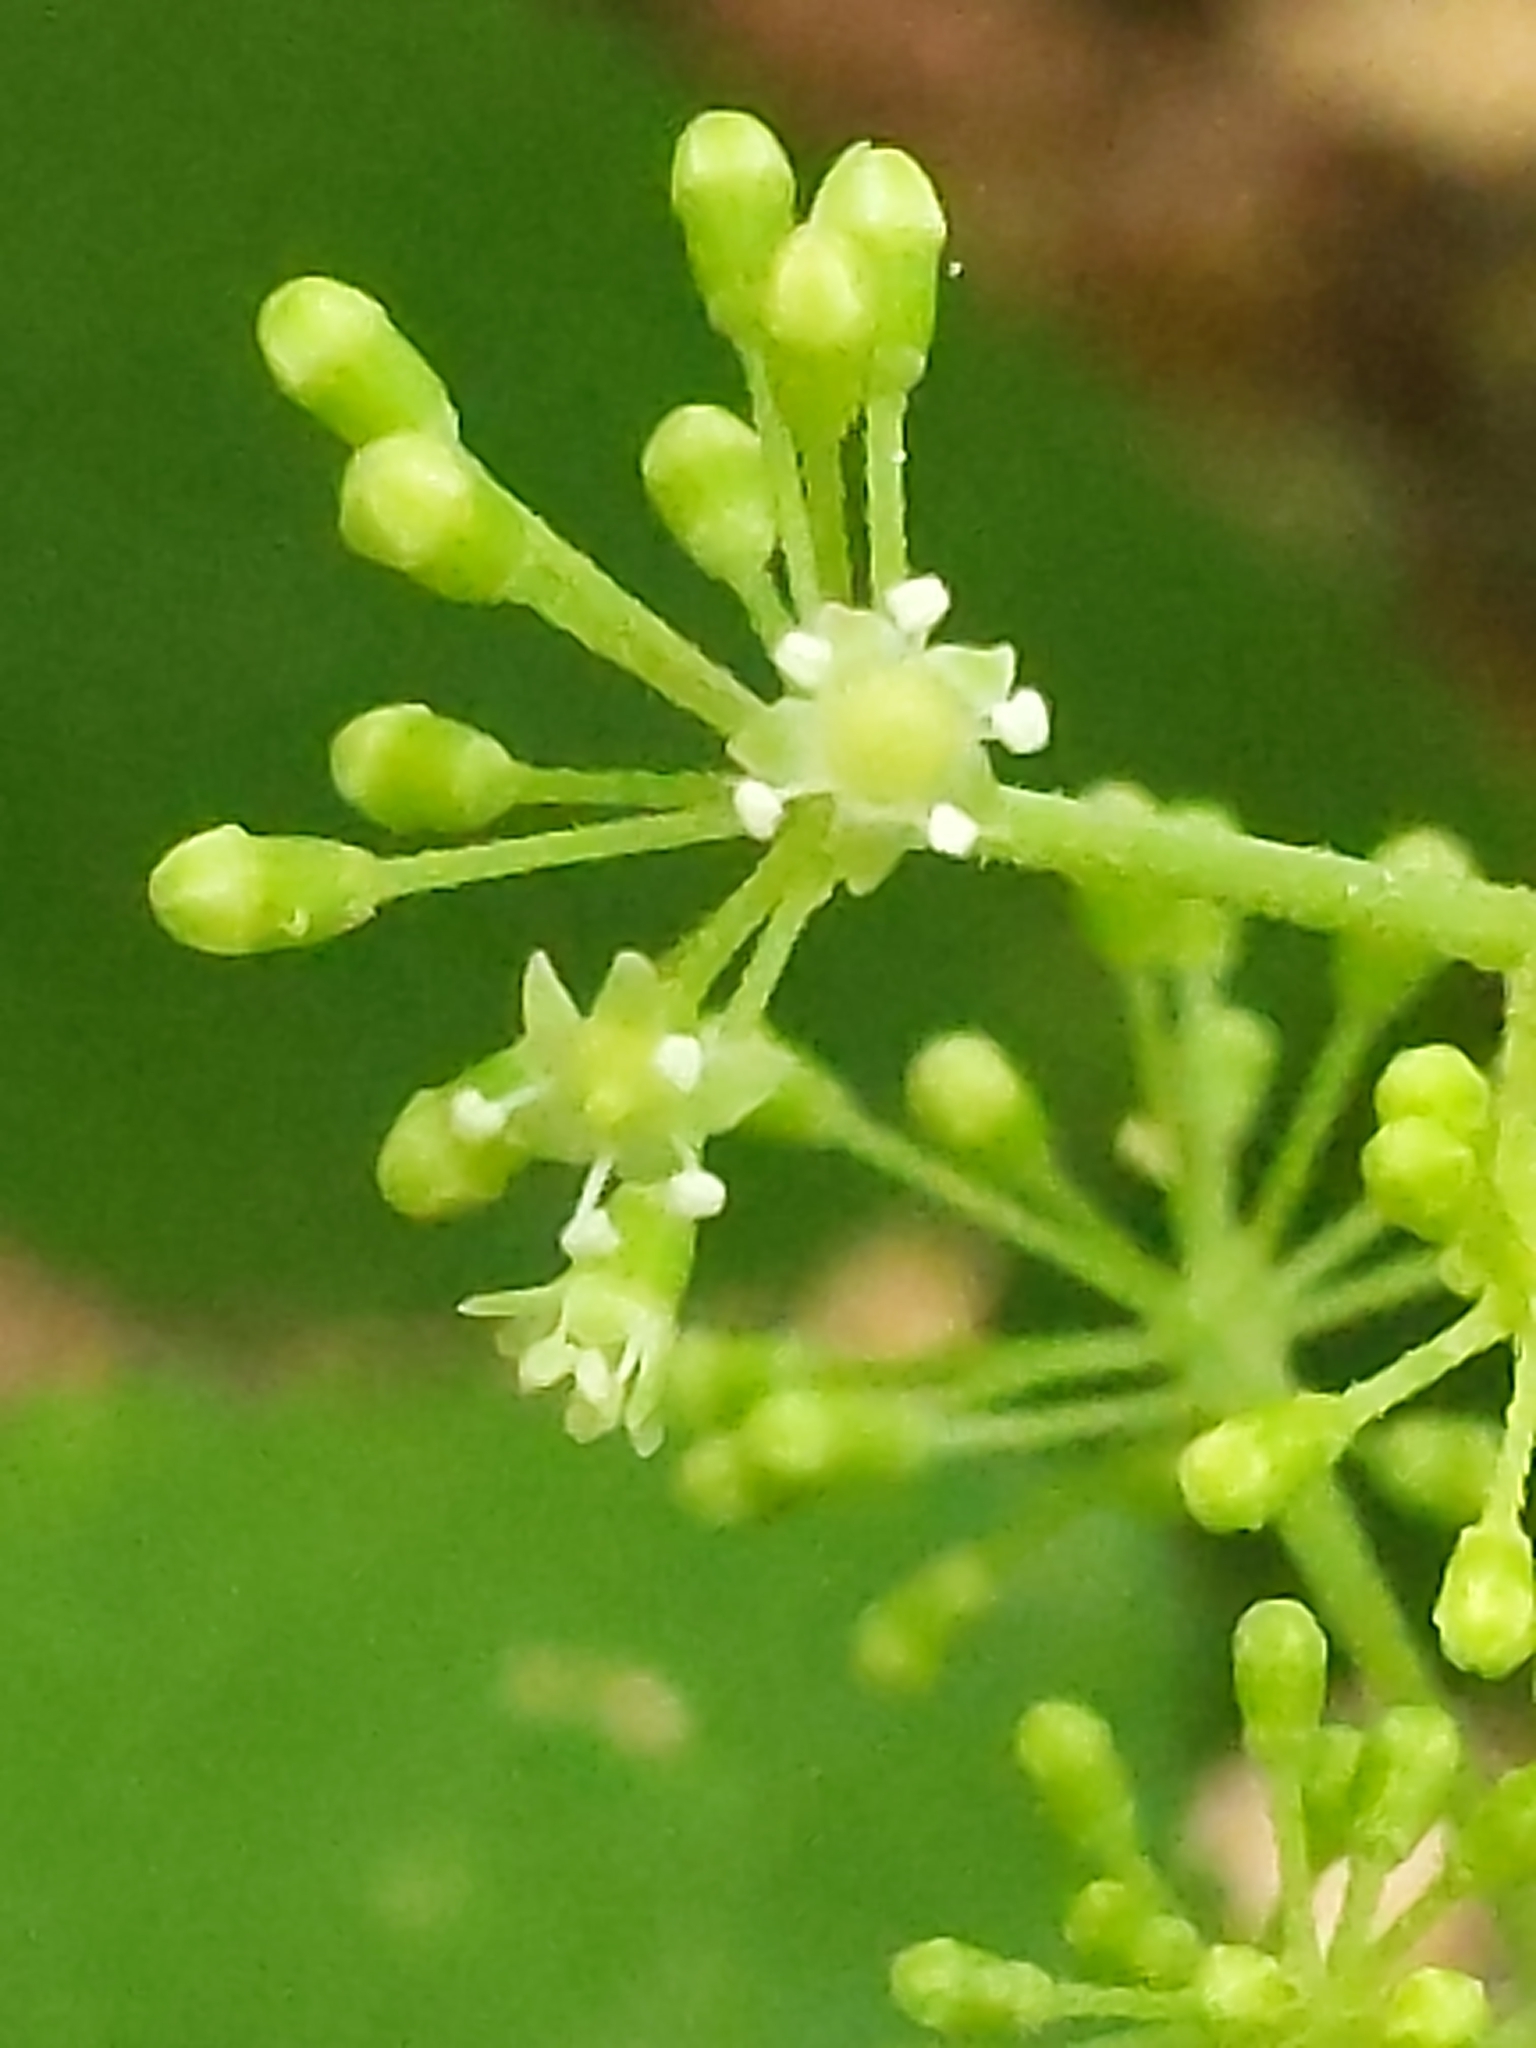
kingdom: Plantae
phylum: Tracheophyta
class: Magnoliopsida
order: Apiales
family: Araliaceae
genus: Aralia
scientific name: Aralia racemosa
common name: American-spikenard
